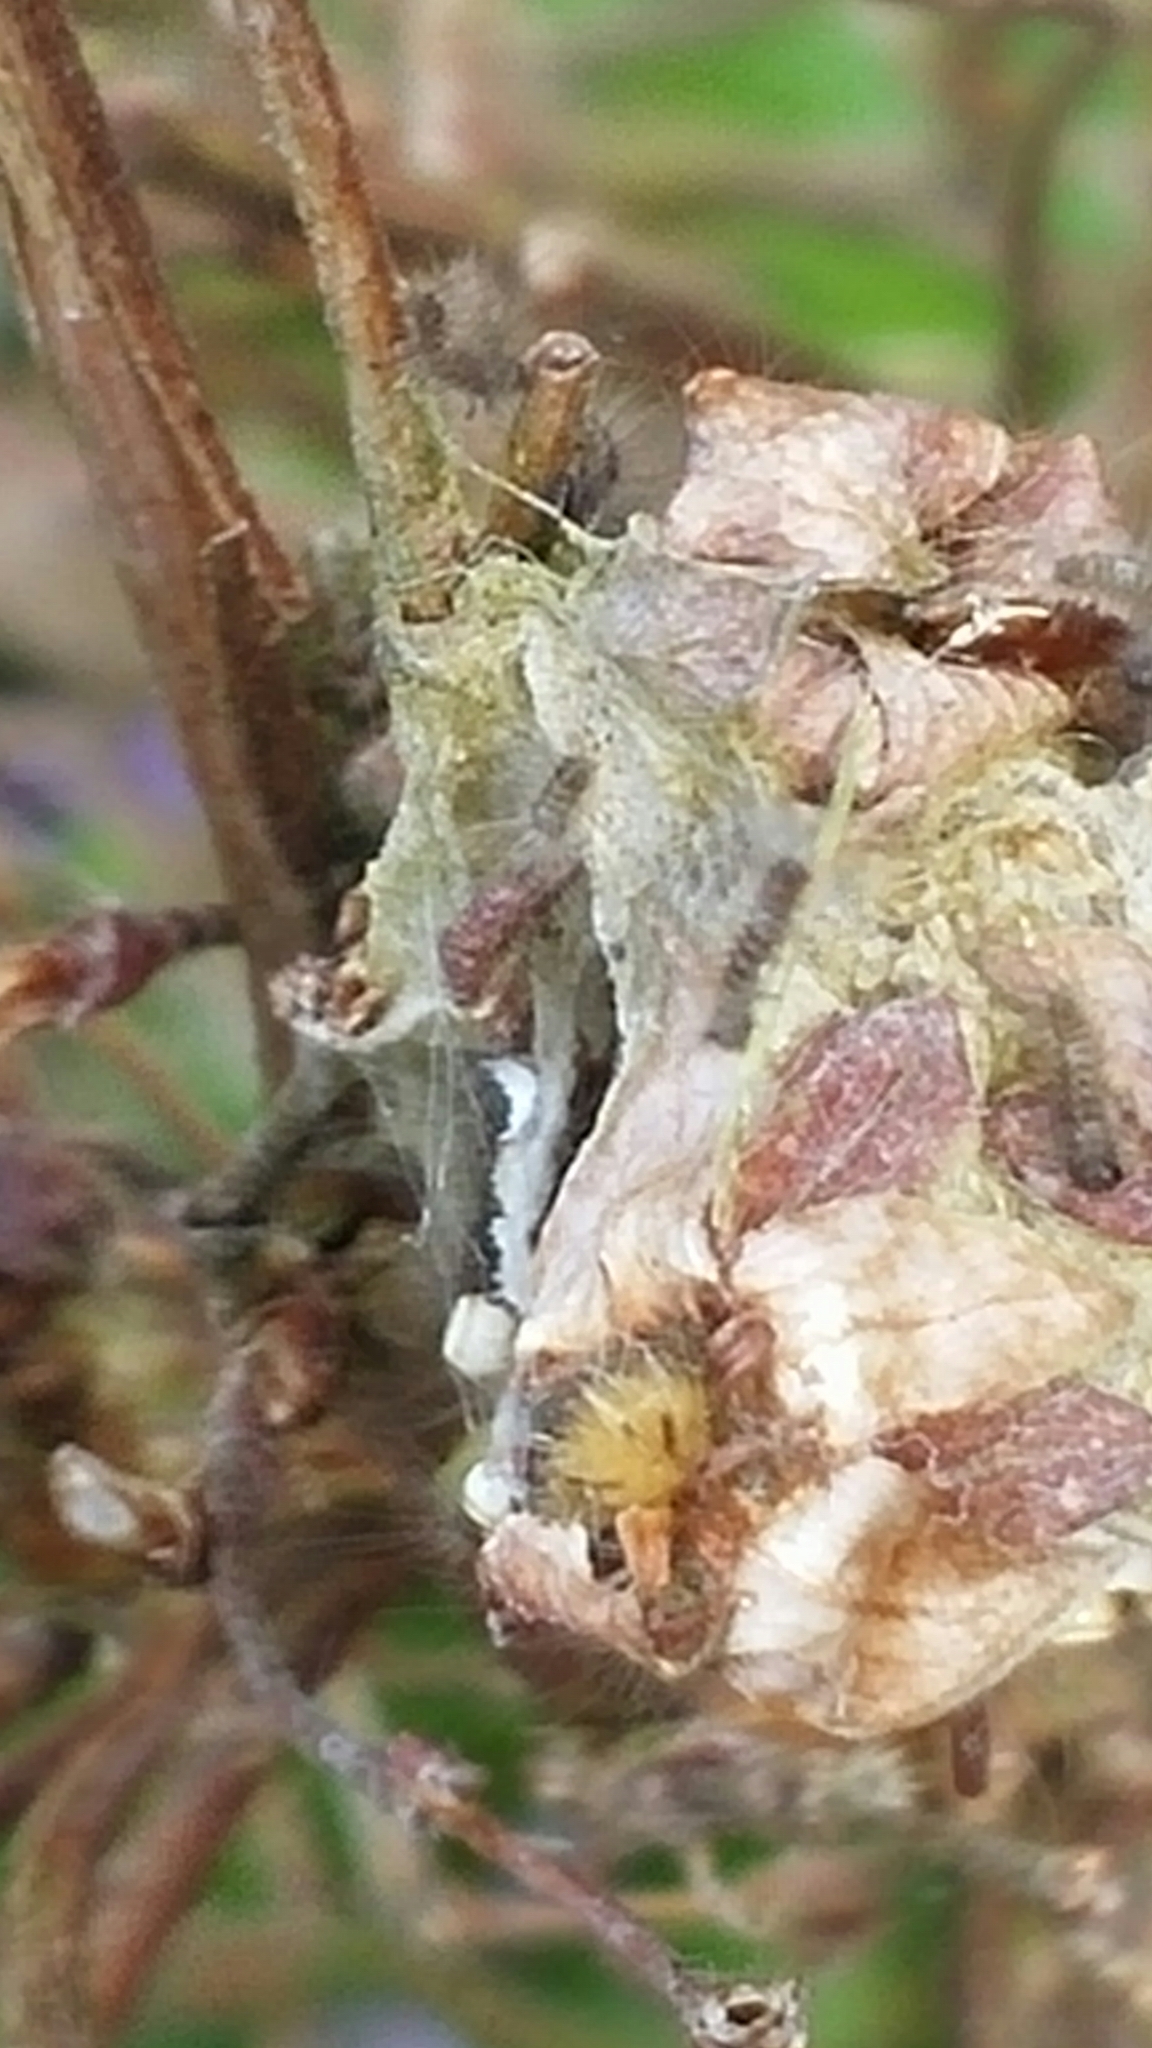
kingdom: Animalia
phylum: Arthropoda
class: Insecta
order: Lepidoptera
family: Erebidae
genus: Orgyia
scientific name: Orgyia antiqua
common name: Vapourer
